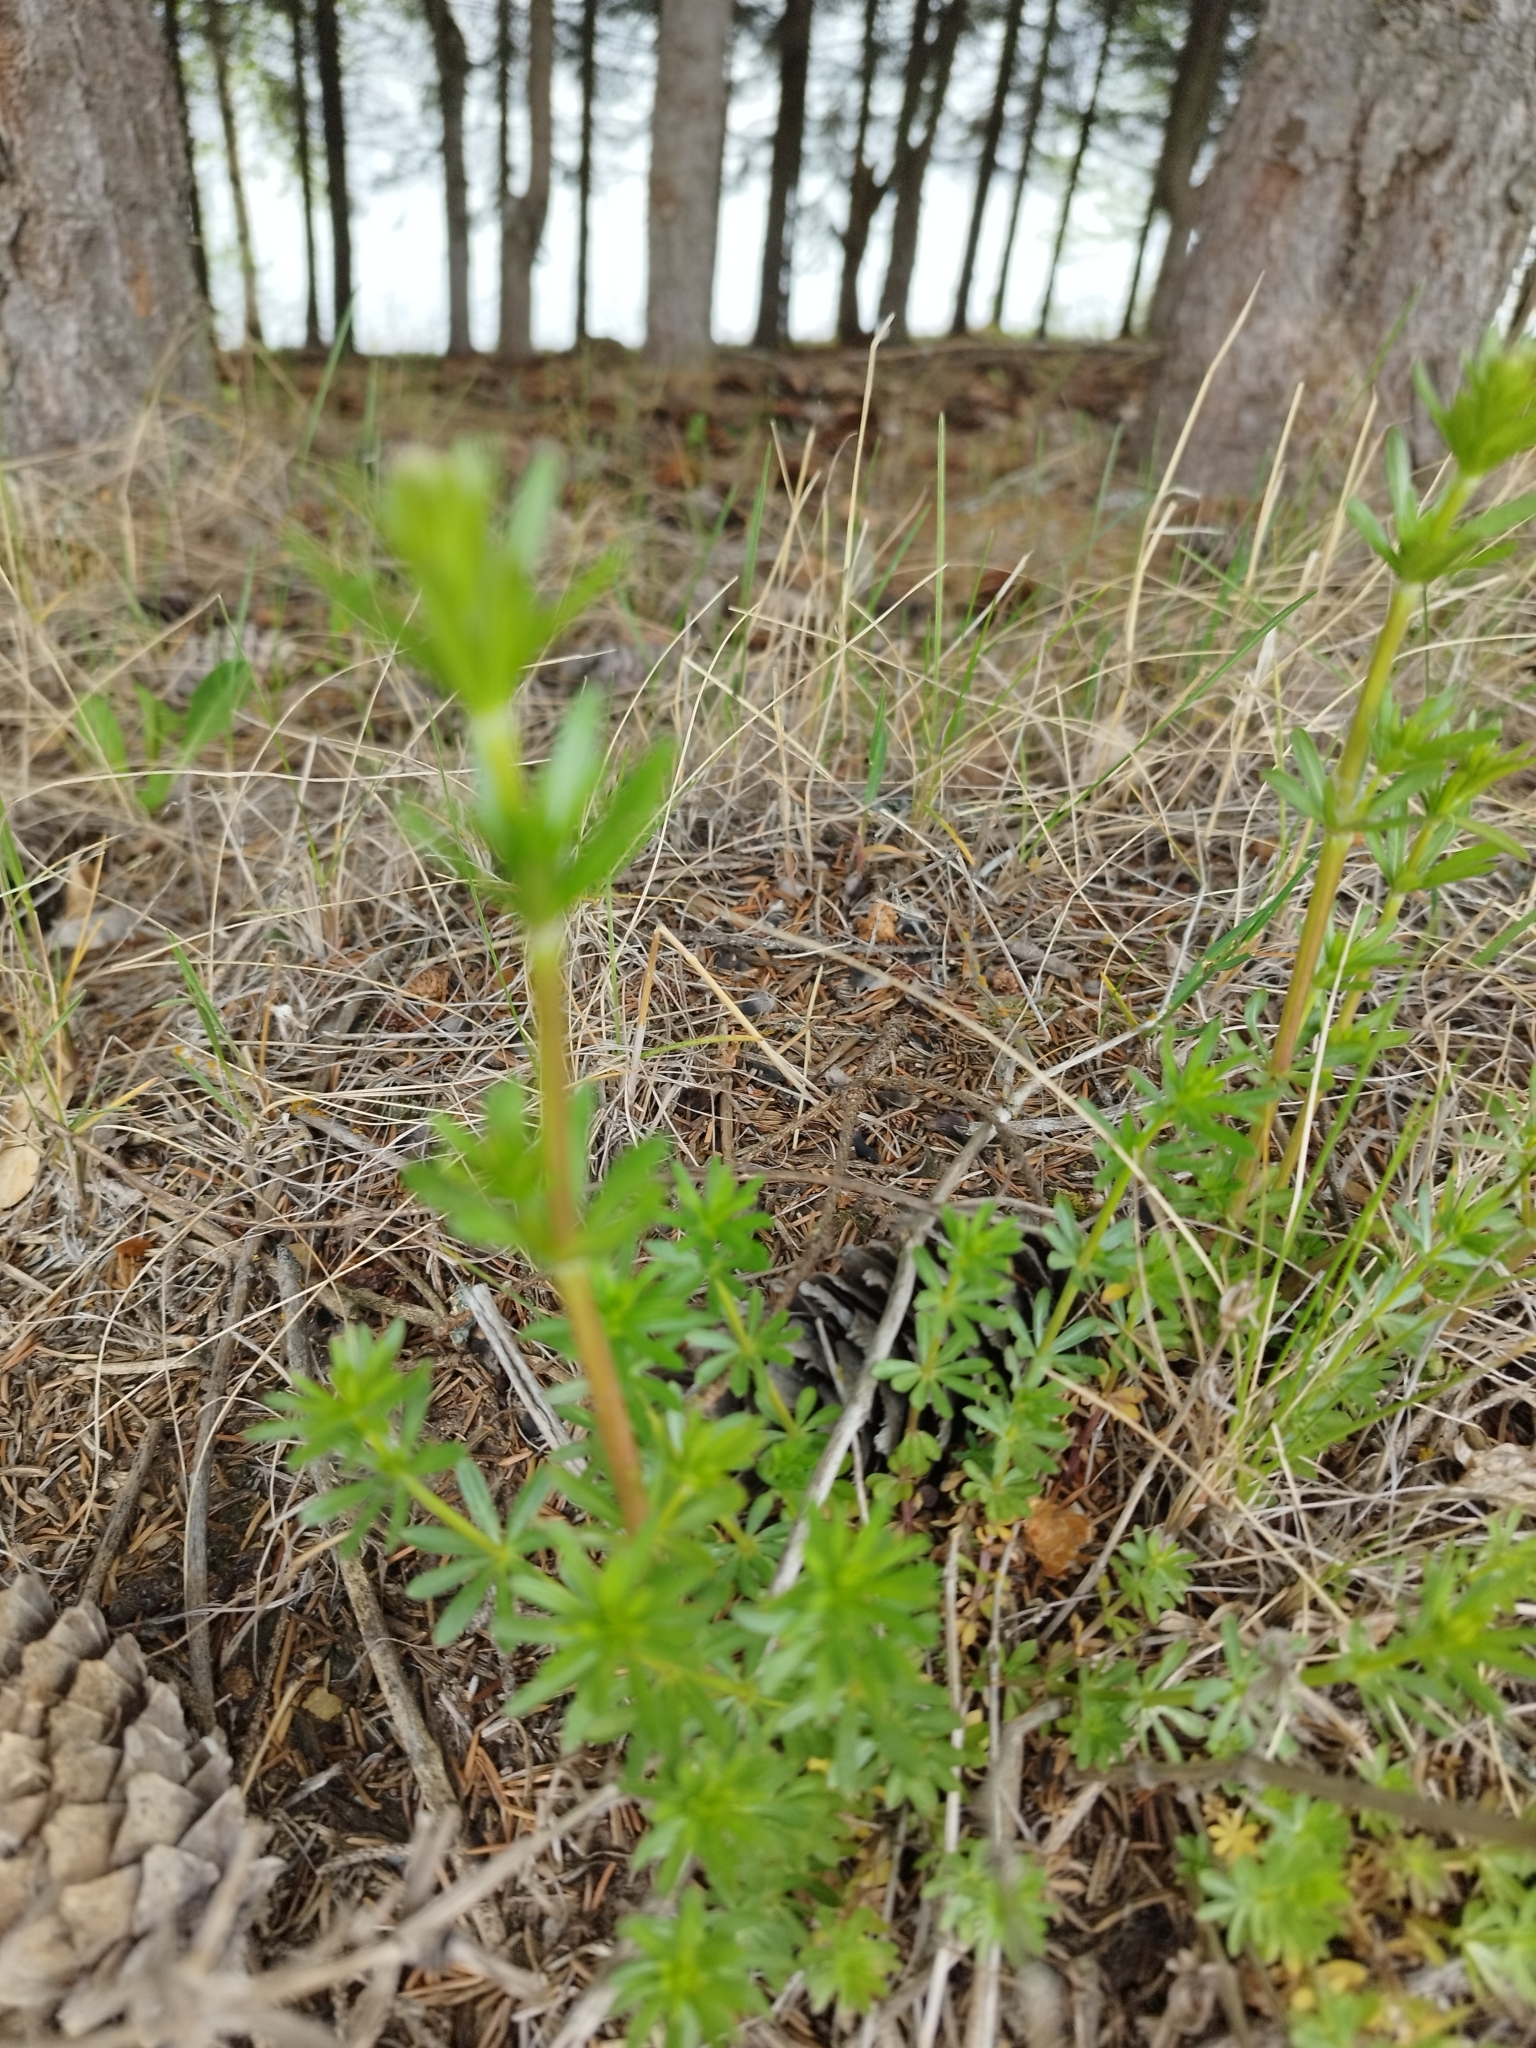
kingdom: Plantae
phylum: Tracheophyta
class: Magnoliopsida
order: Gentianales
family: Rubiaceae
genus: Galium
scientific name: Galium mollugo
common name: Hedge bedstraw
